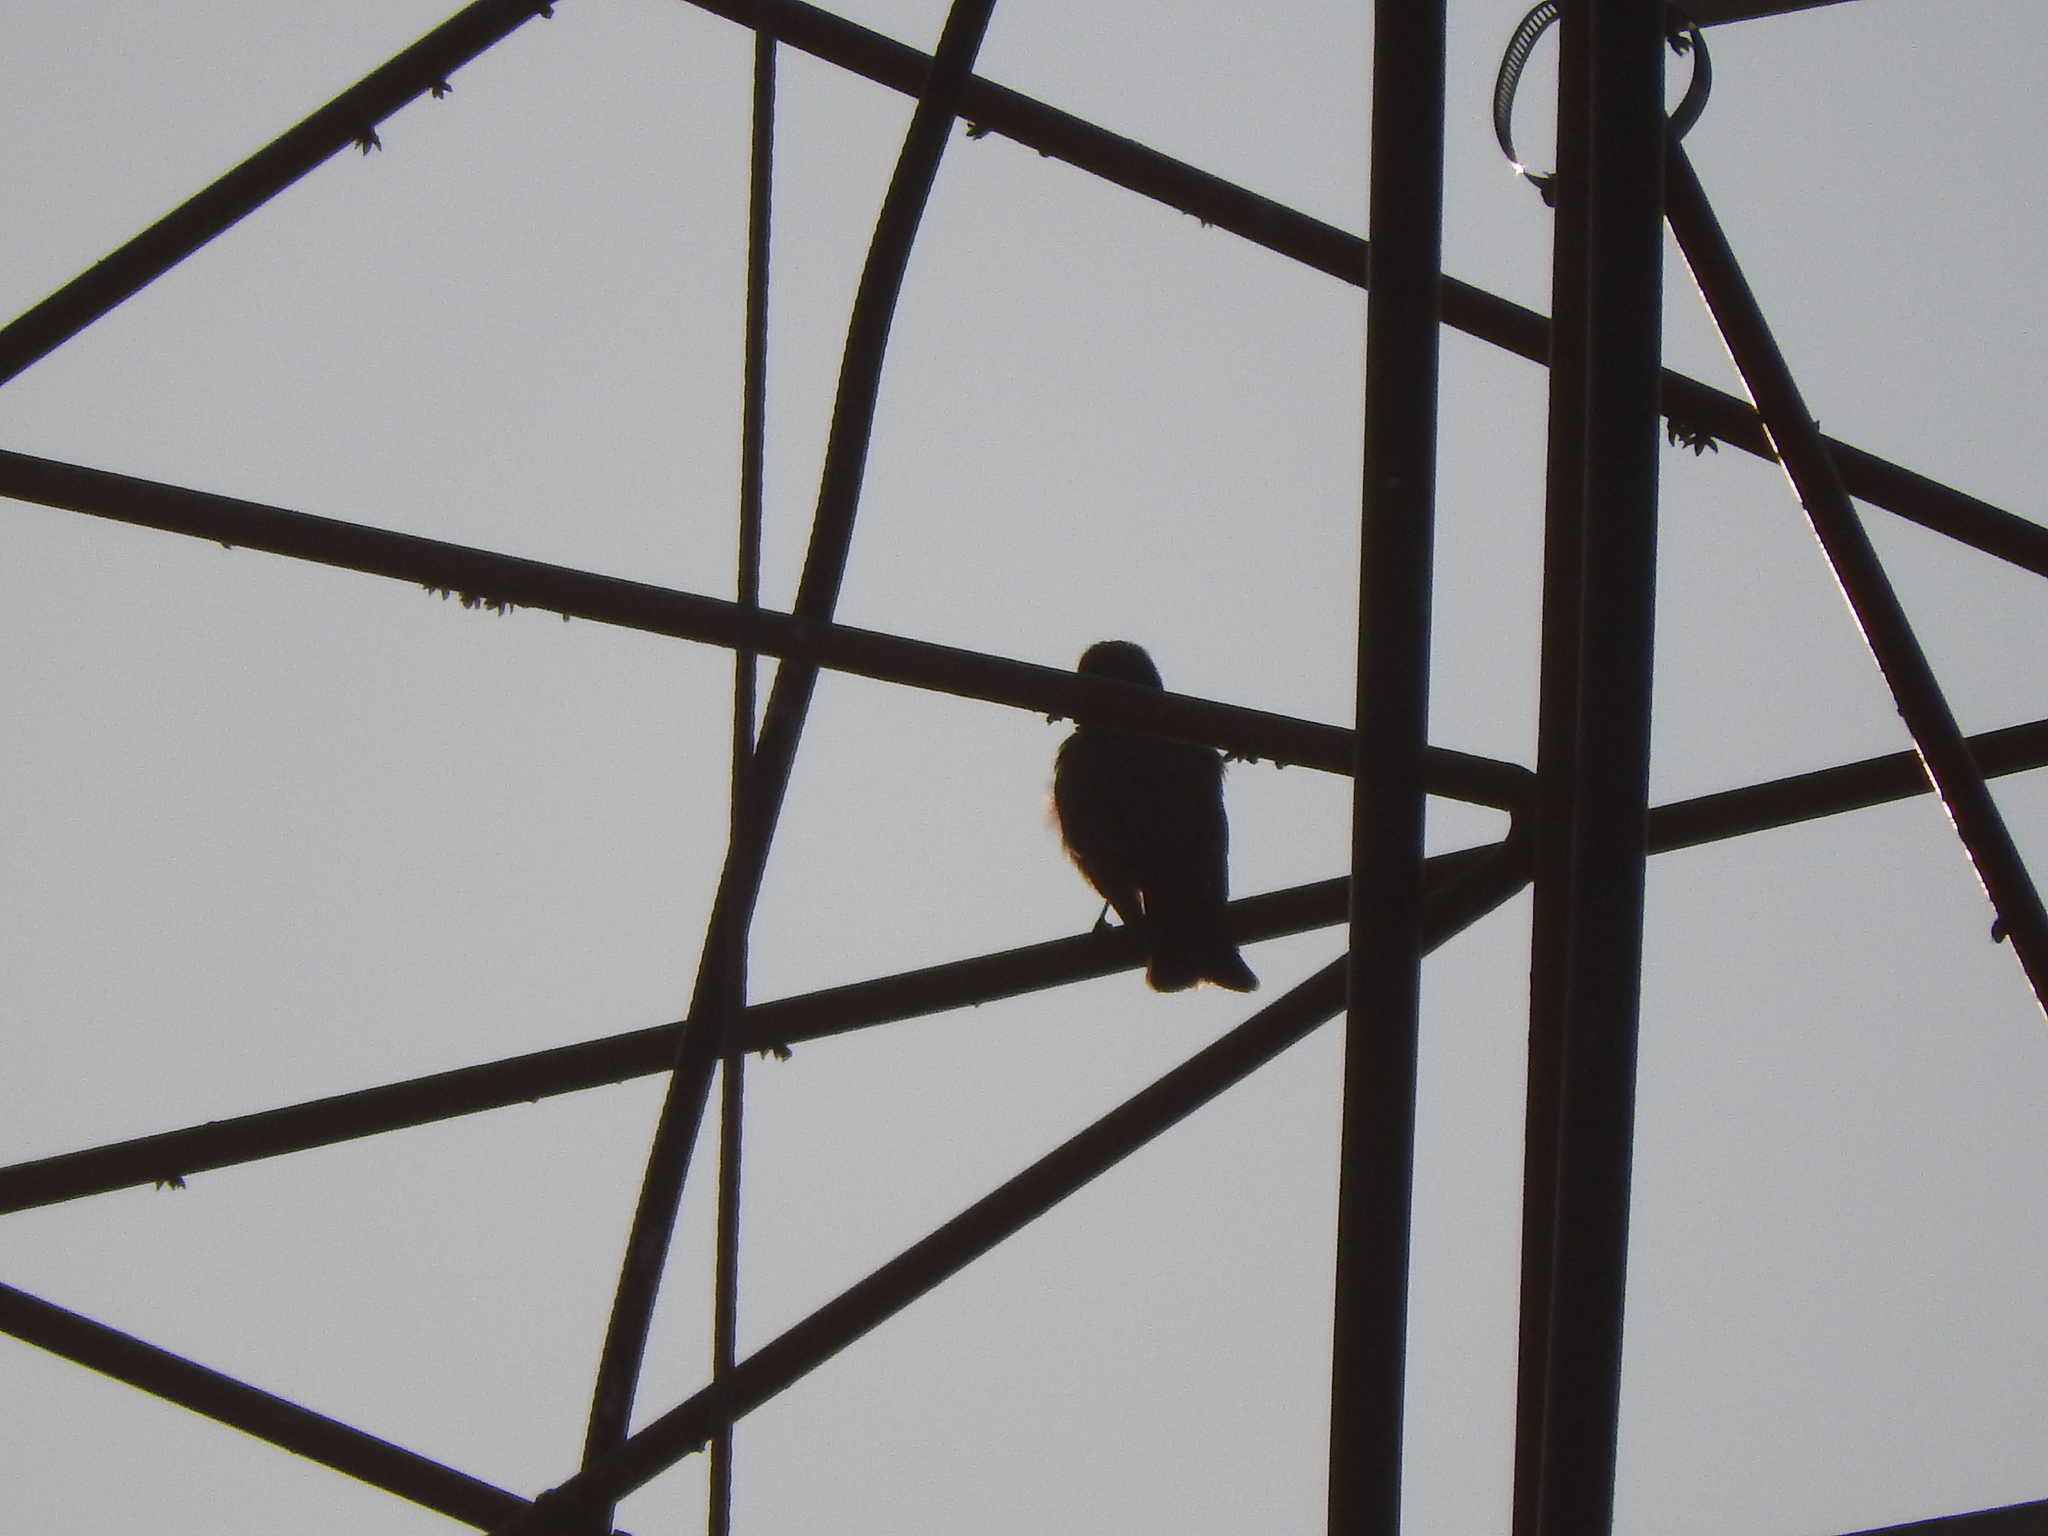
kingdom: Animalia
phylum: Chordata
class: Aves
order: Passeriformes
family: Tyrannidae
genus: Tyrannus
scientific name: Tyrannus vociferans
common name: Cassin's kingbird
